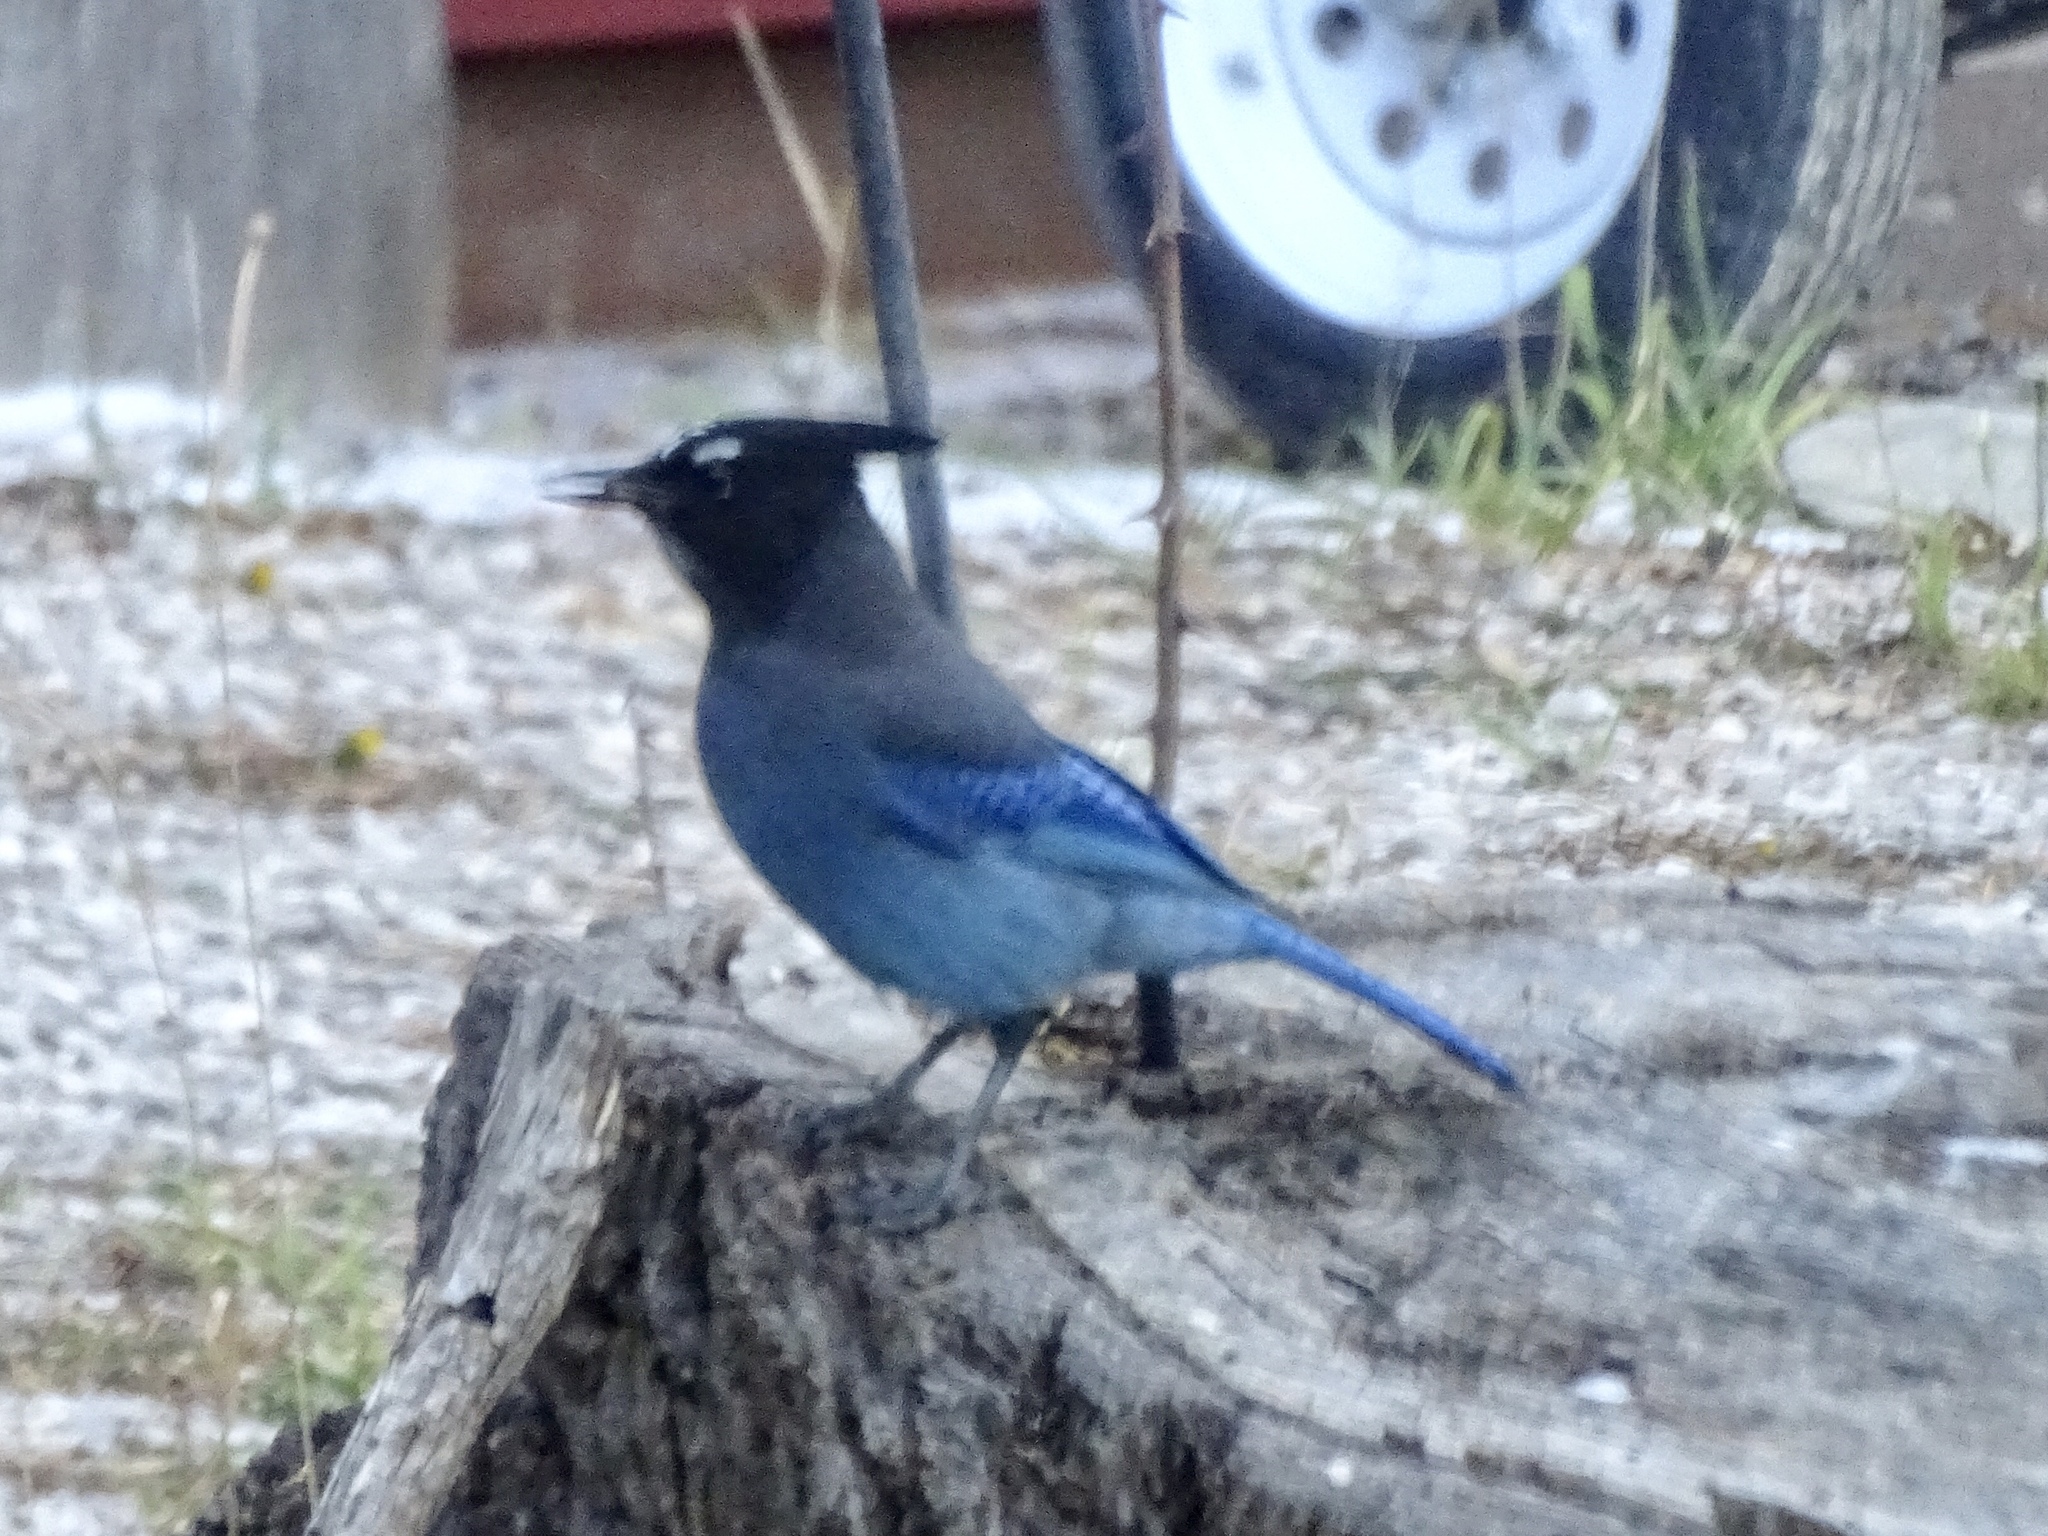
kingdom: Animalia
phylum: Chordata
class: Aves
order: Passeriformes
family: Corvidae
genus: Cyanocitta
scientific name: Cyanocitta stelleri
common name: Steller's jay
